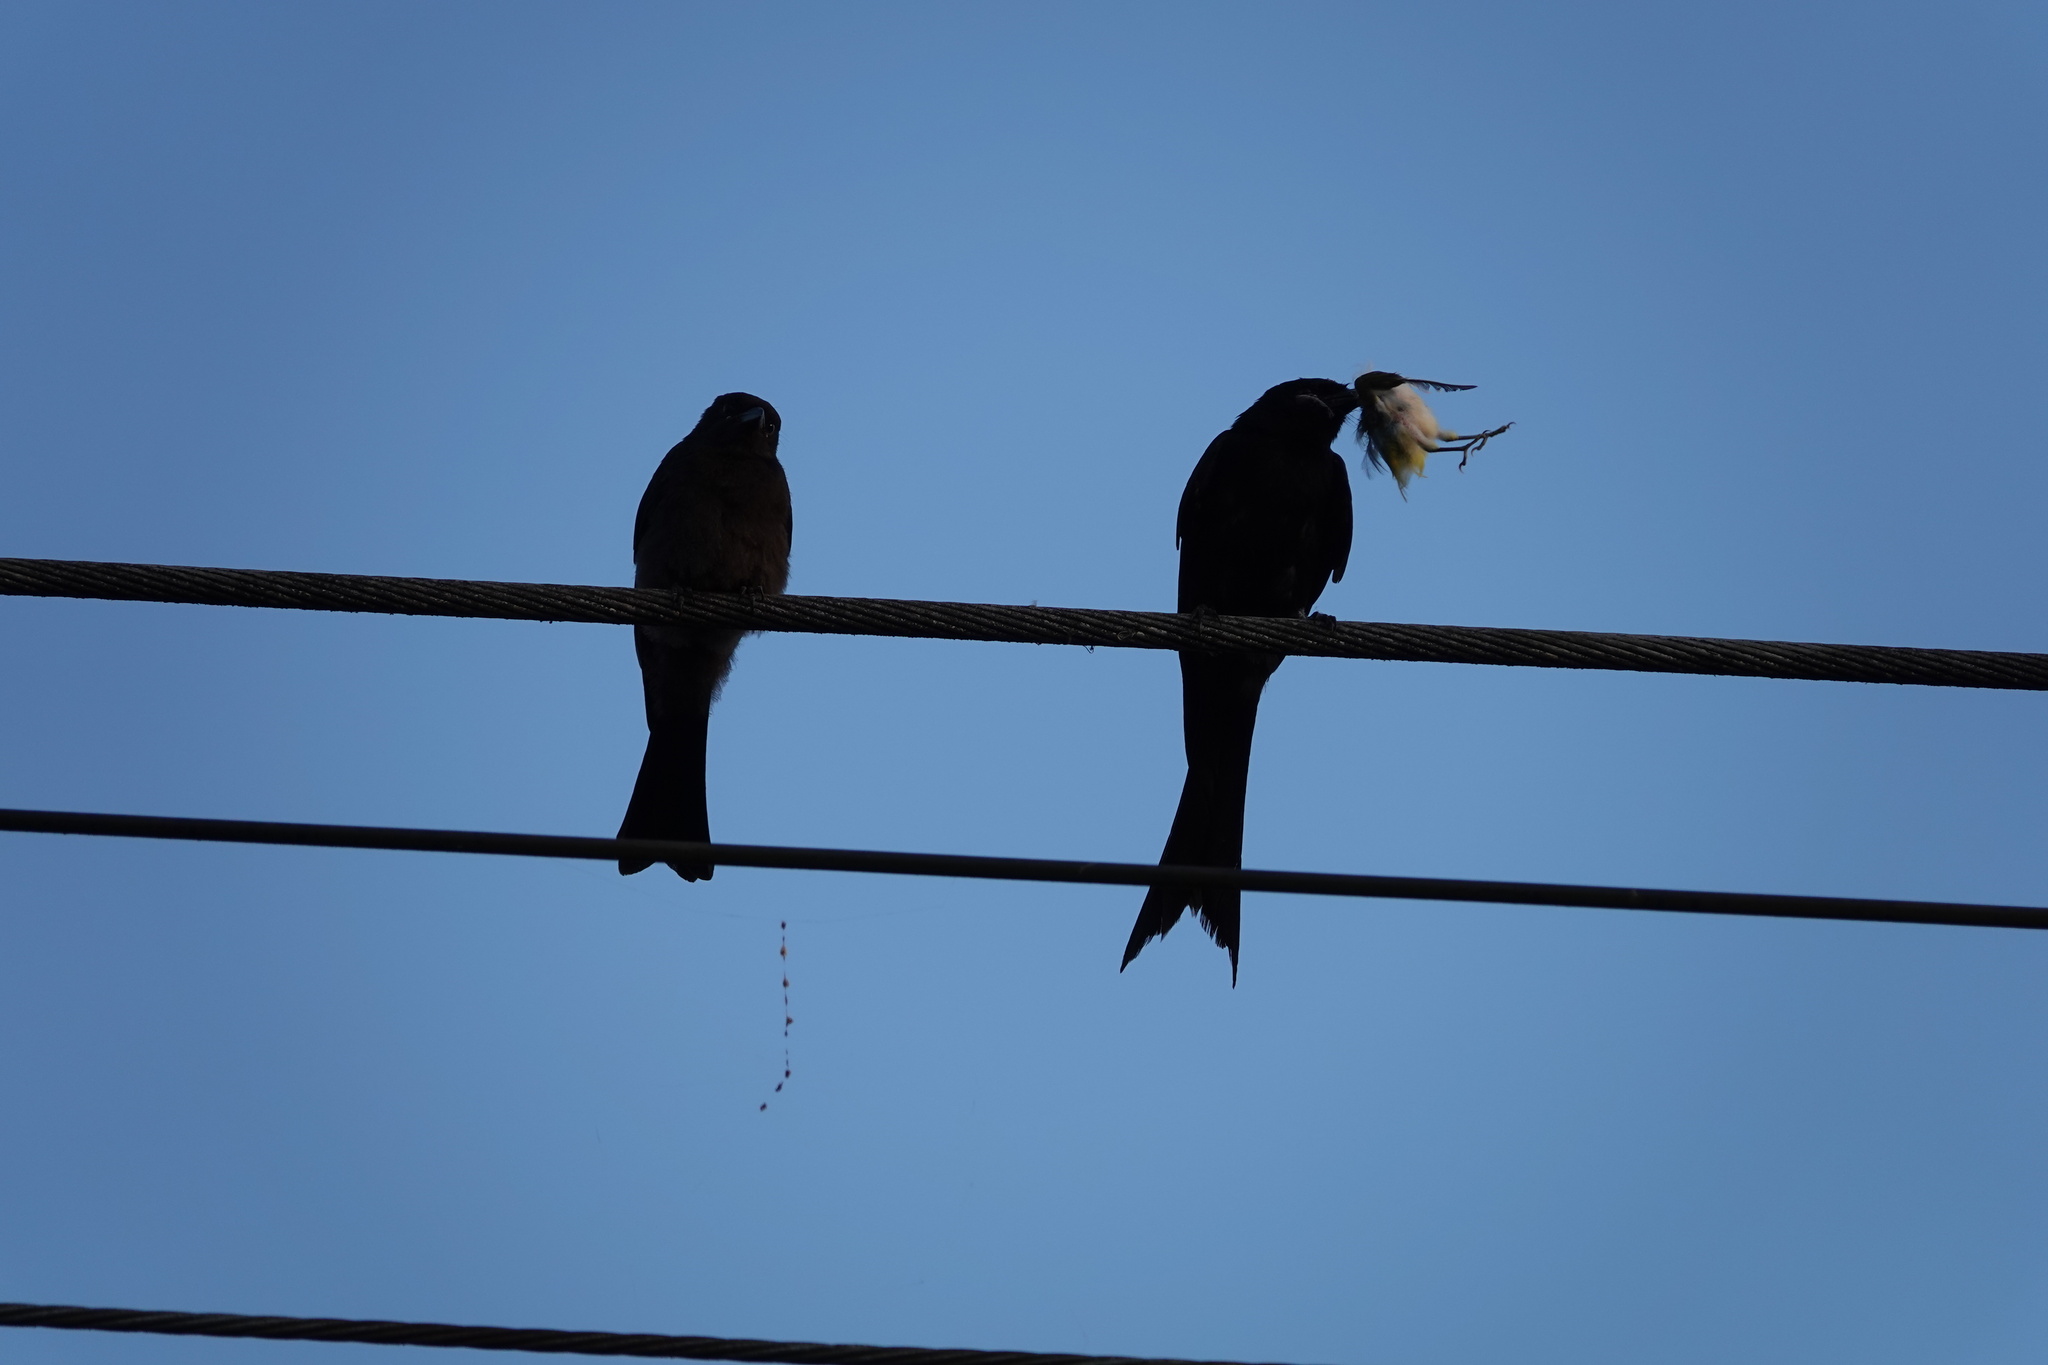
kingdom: Animalia
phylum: Chordata
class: Aves
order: Passeriformes
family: Dicruridae
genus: Dicrurus
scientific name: Dicrurus macrocercus
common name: Black drongo
